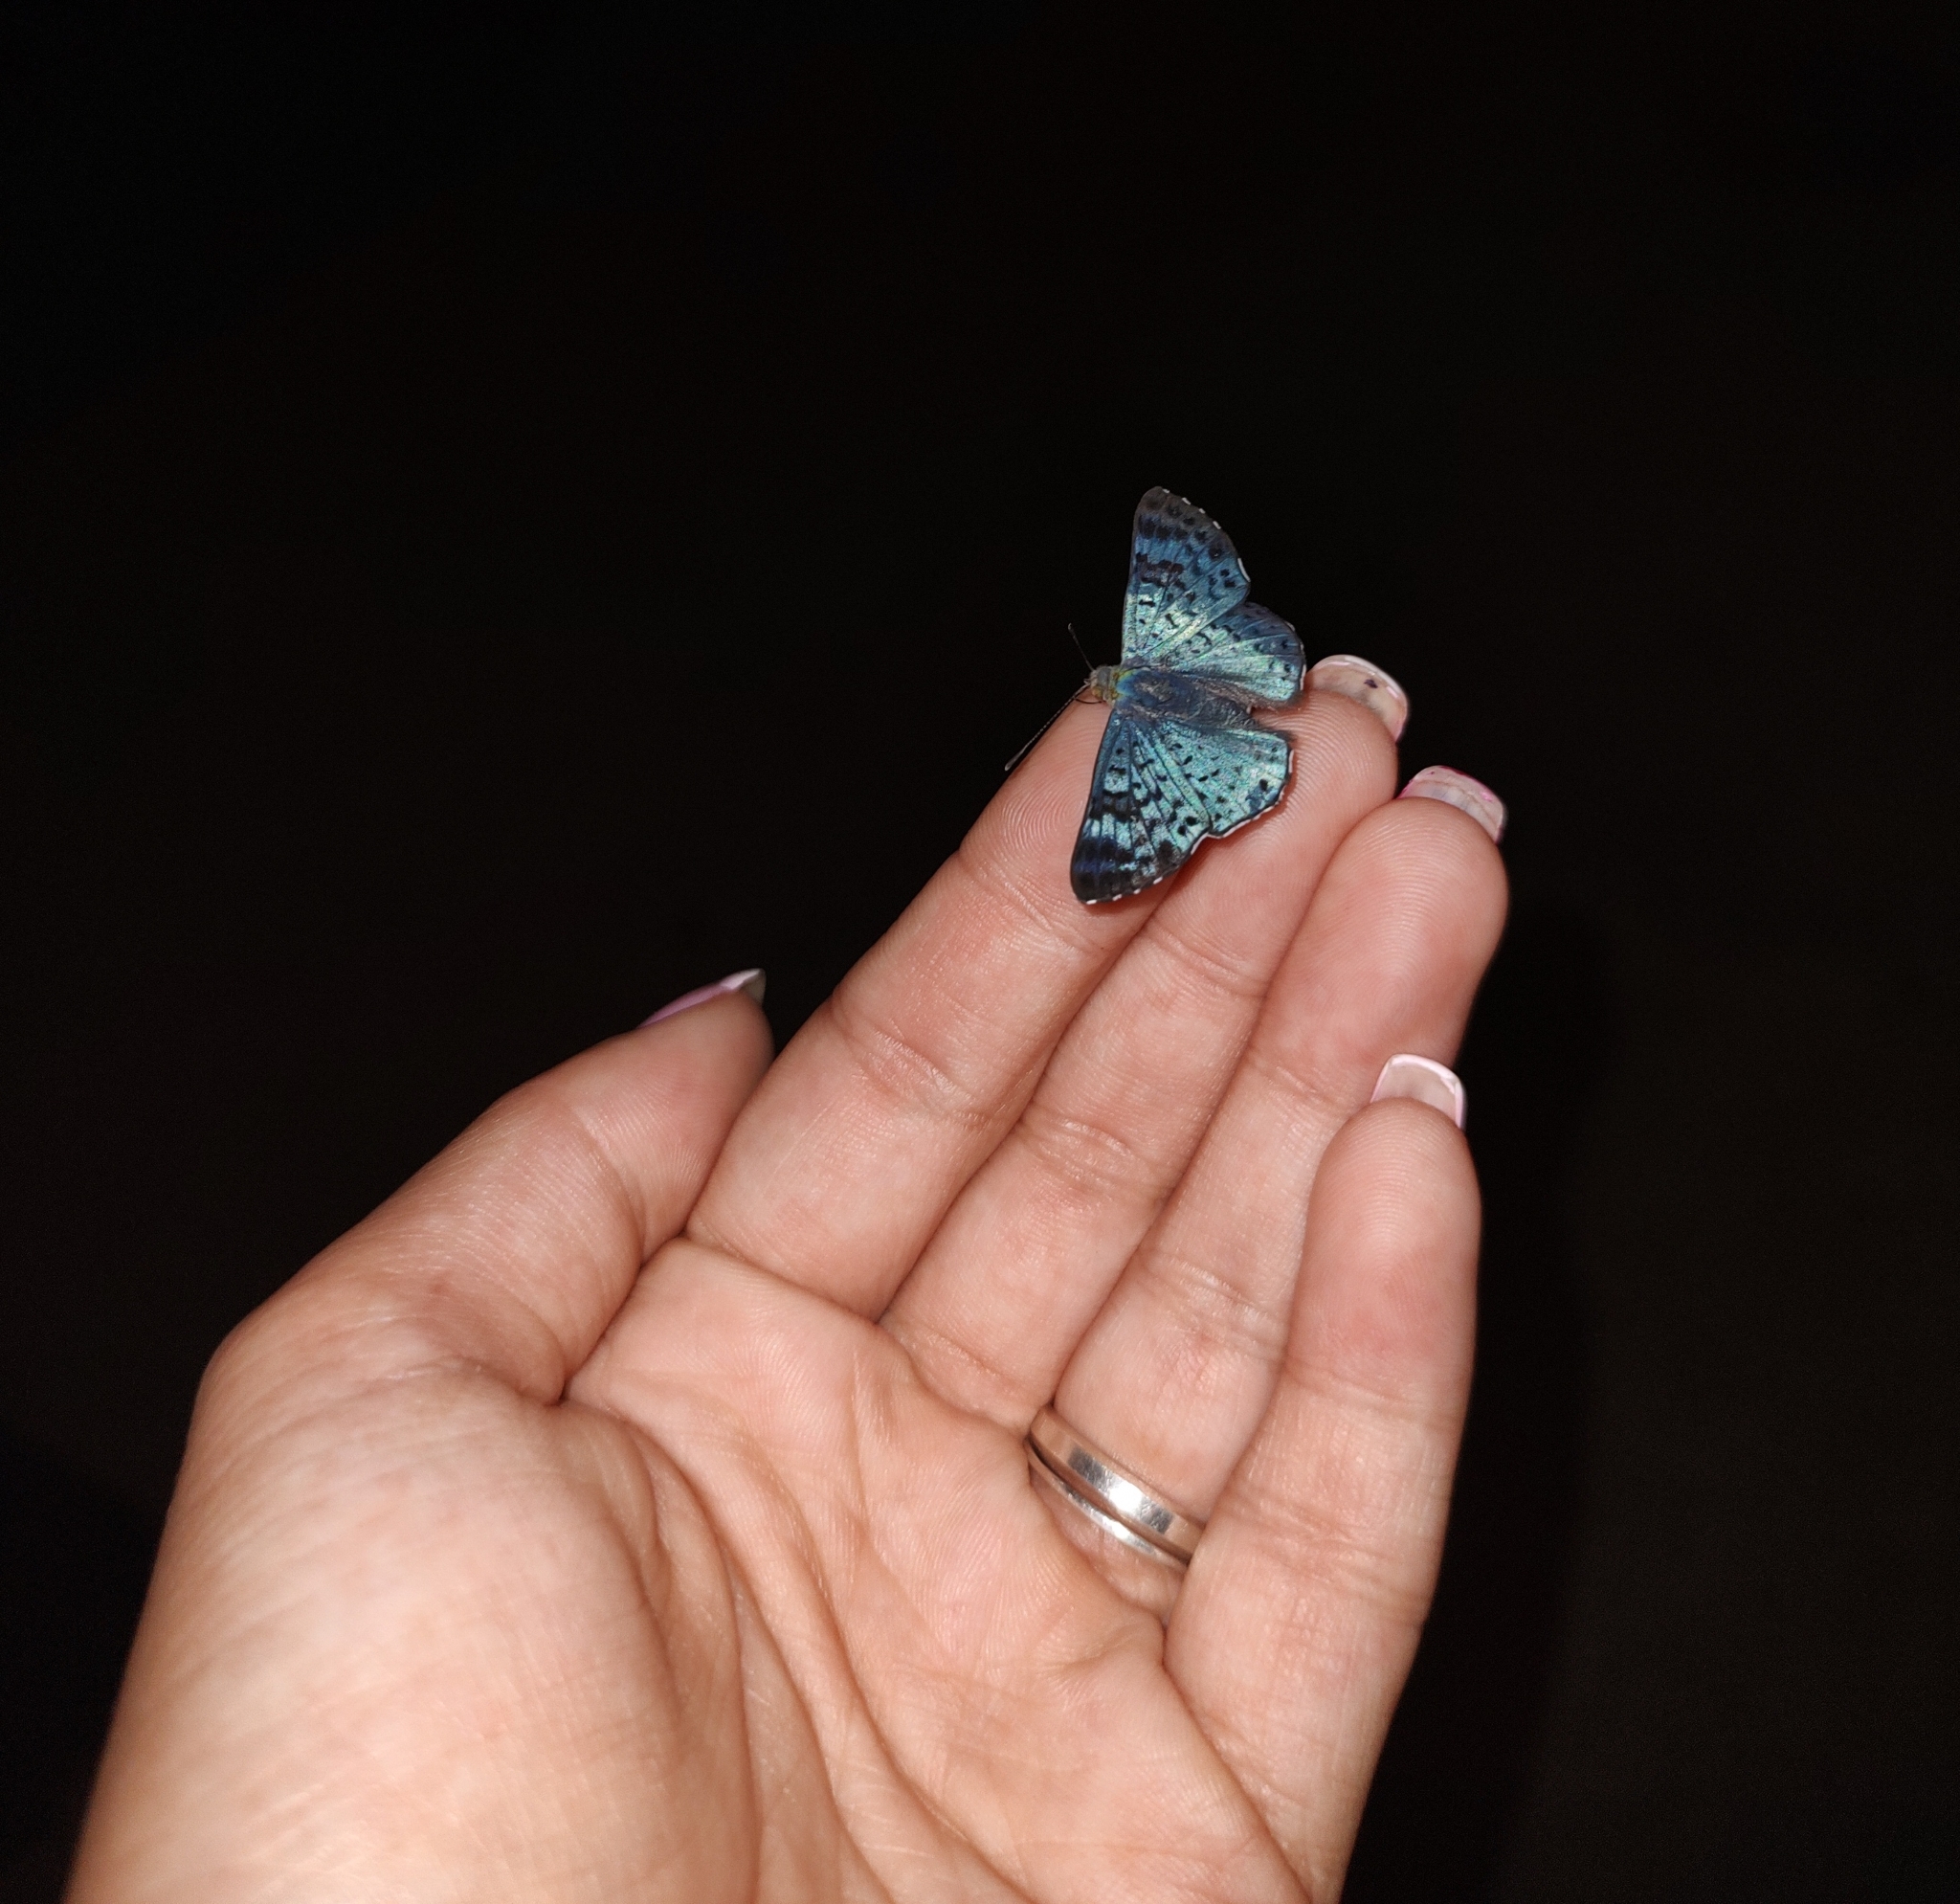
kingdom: Animalia
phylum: Arthropoda
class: Insecta
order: Lepidoptera
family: Riodinidae
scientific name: Riodinidae
